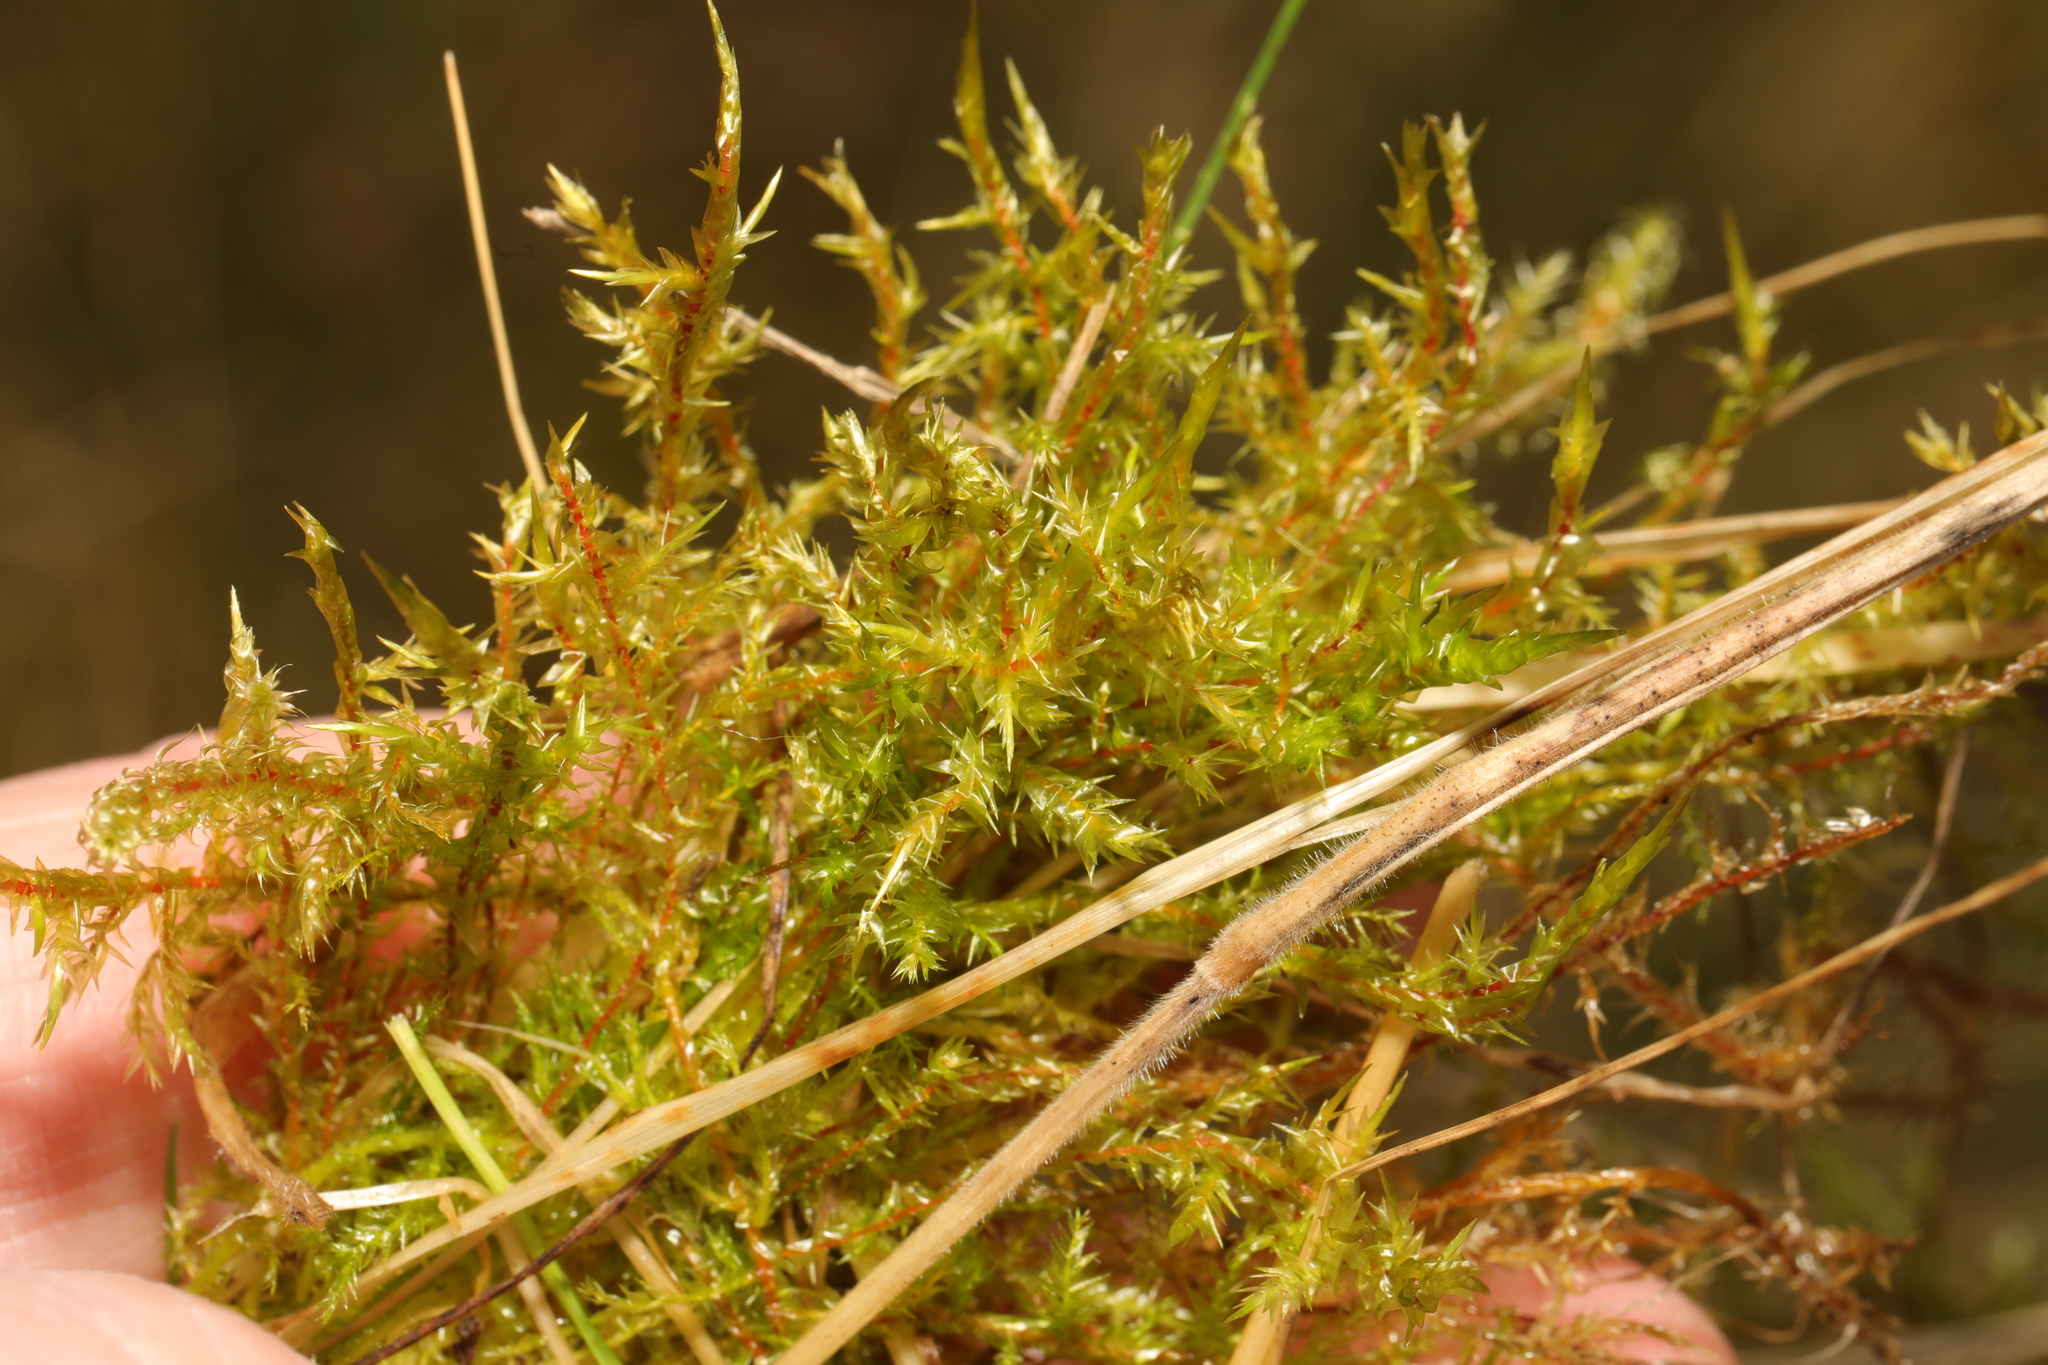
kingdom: Plantae
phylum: Bryophyta
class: Bryopsida
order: Hypnales
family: Pylaisiaceae
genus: Calliergonella
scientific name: Calliergonella cuspidata
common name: Common large wetland moss
